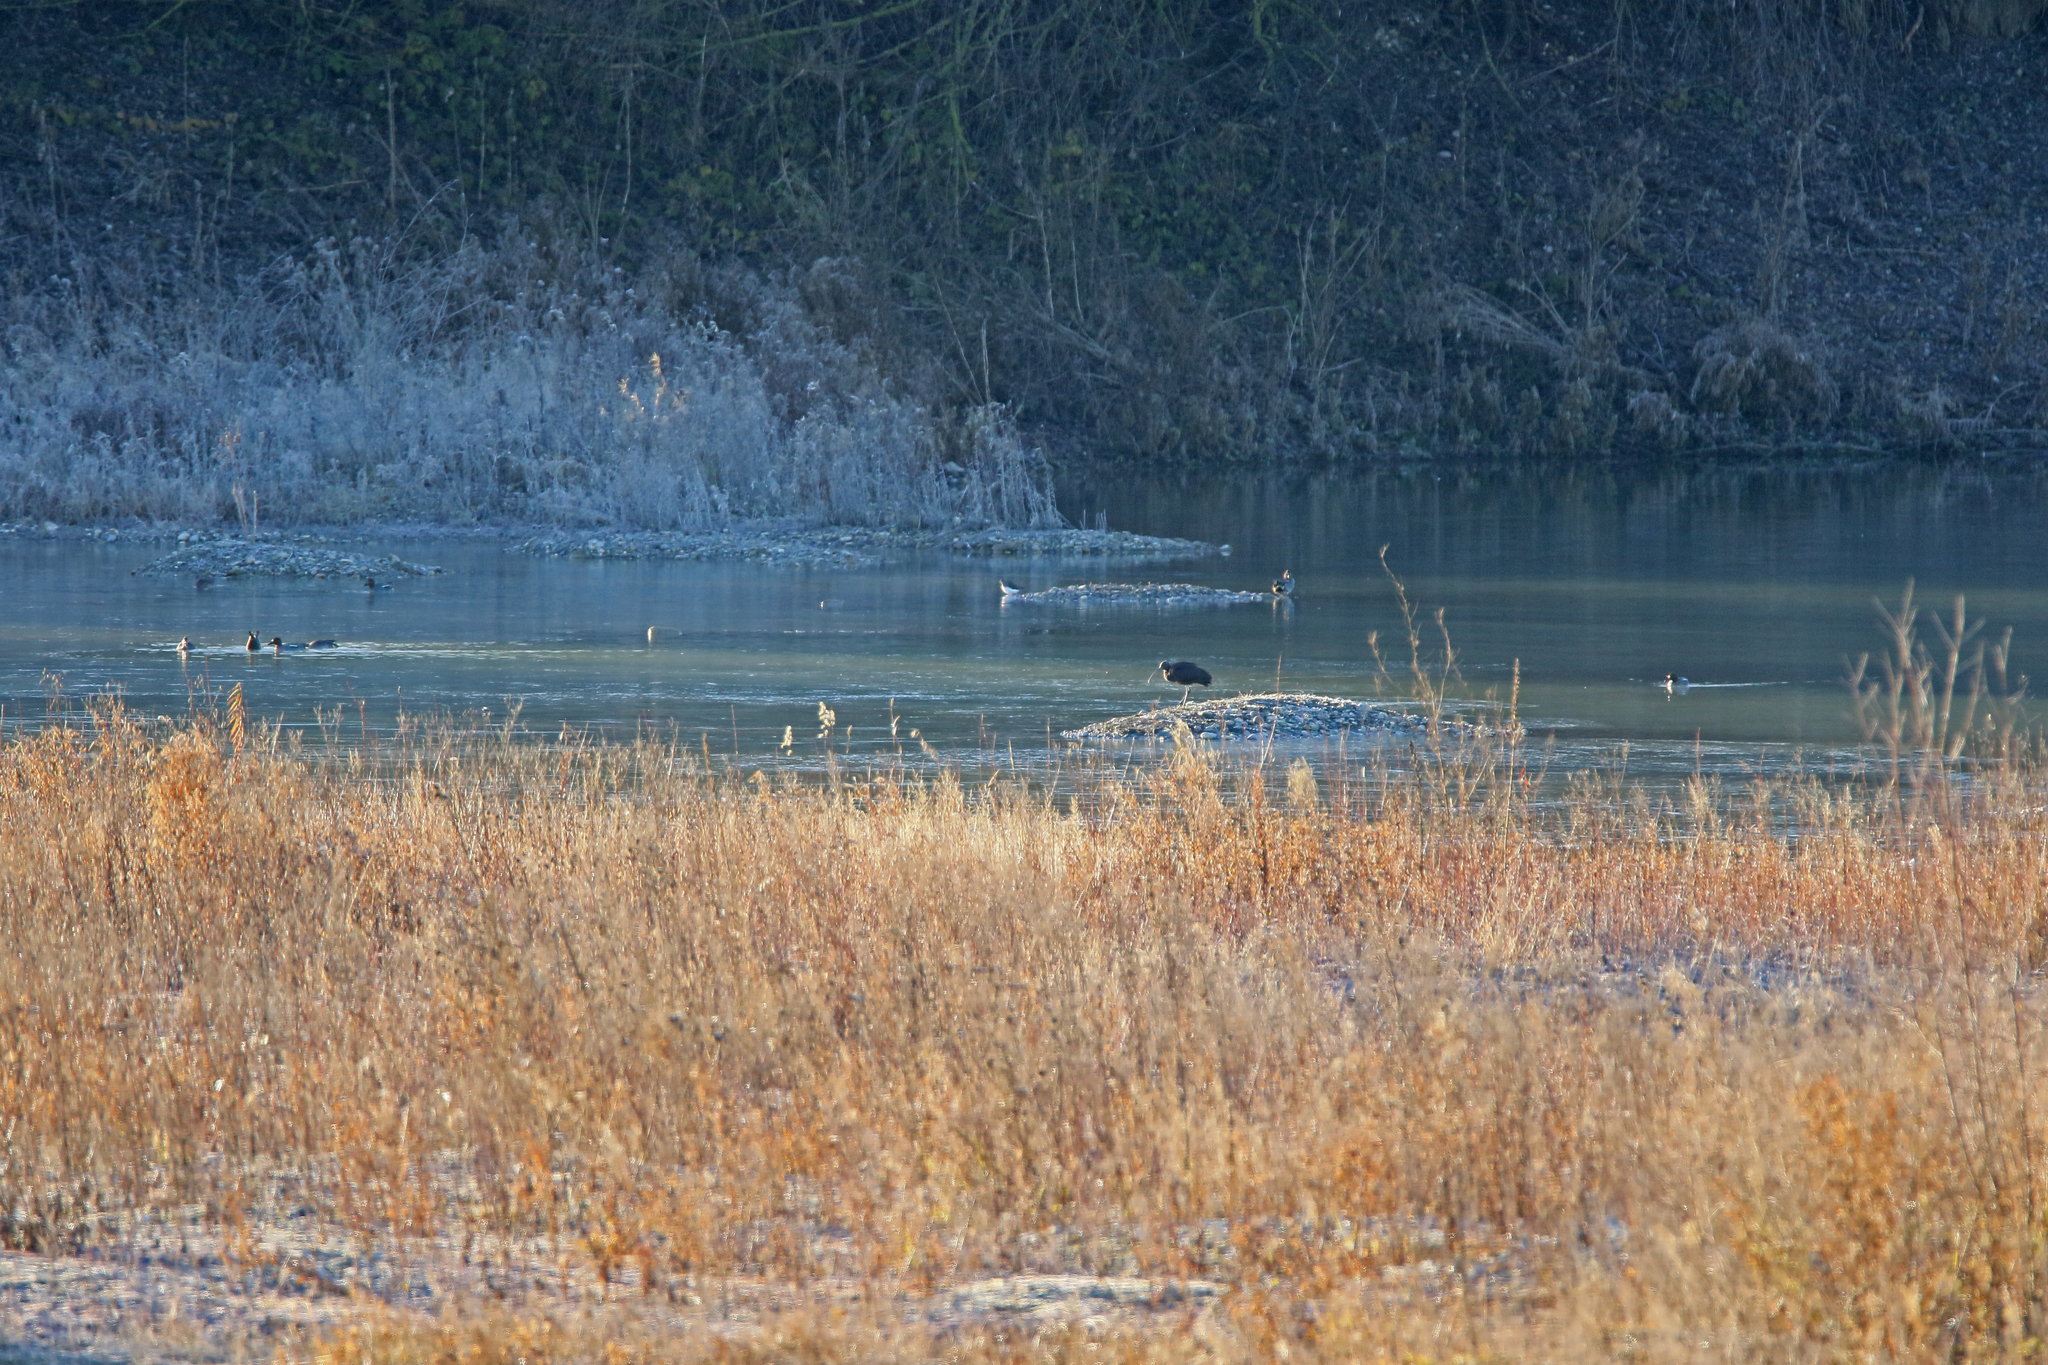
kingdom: Animalia
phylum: Chordata
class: Aves
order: Pelecaniformes
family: Threskiornithidae
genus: Plegadis
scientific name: Plegadis falcinellus
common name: Glossy ibis
